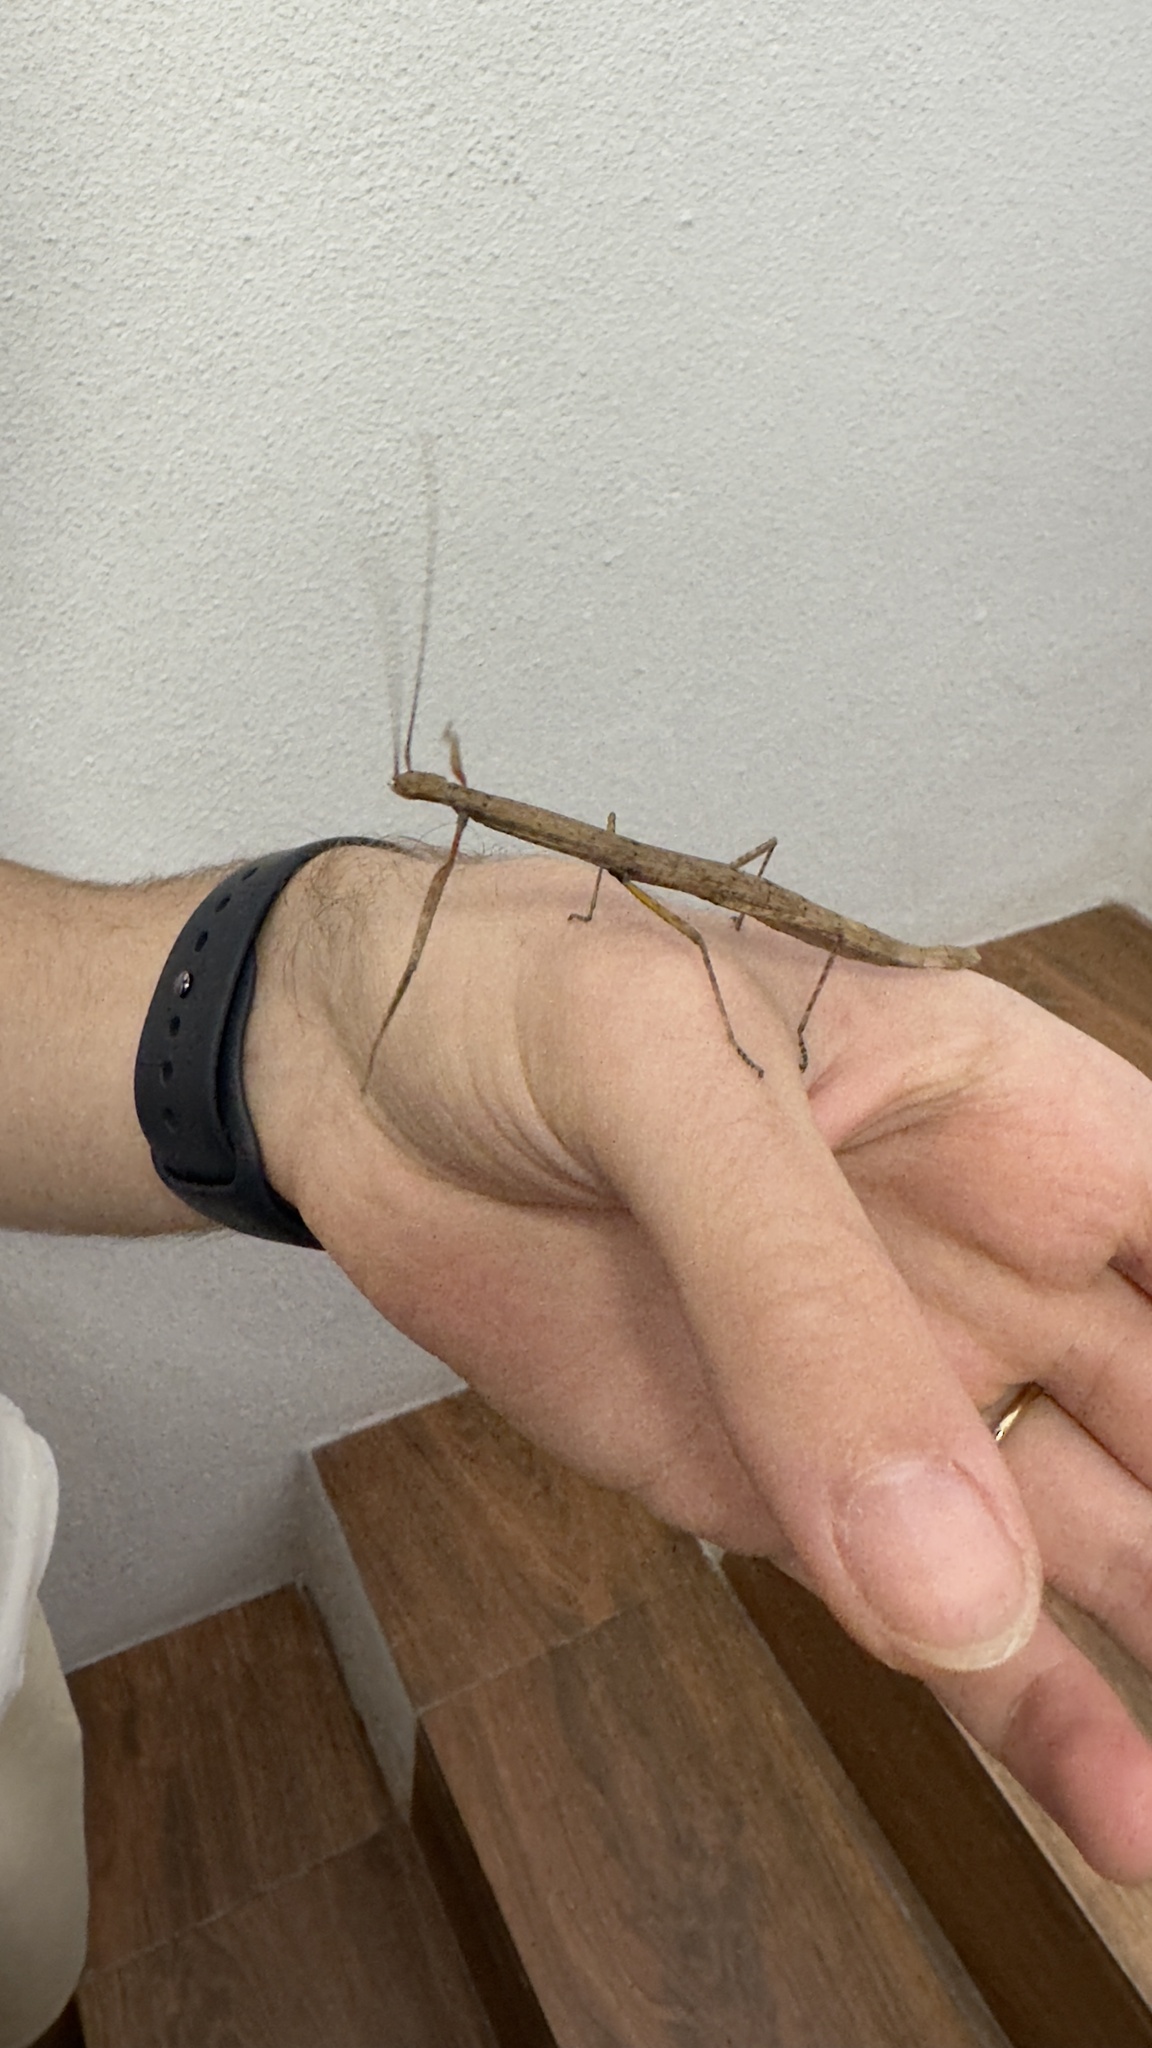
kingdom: Animalia
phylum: Arthropoda
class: Insecta
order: Phasmida
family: Lonchodidae
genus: Carausius
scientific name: Carausius morosus
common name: Indian stick insect
